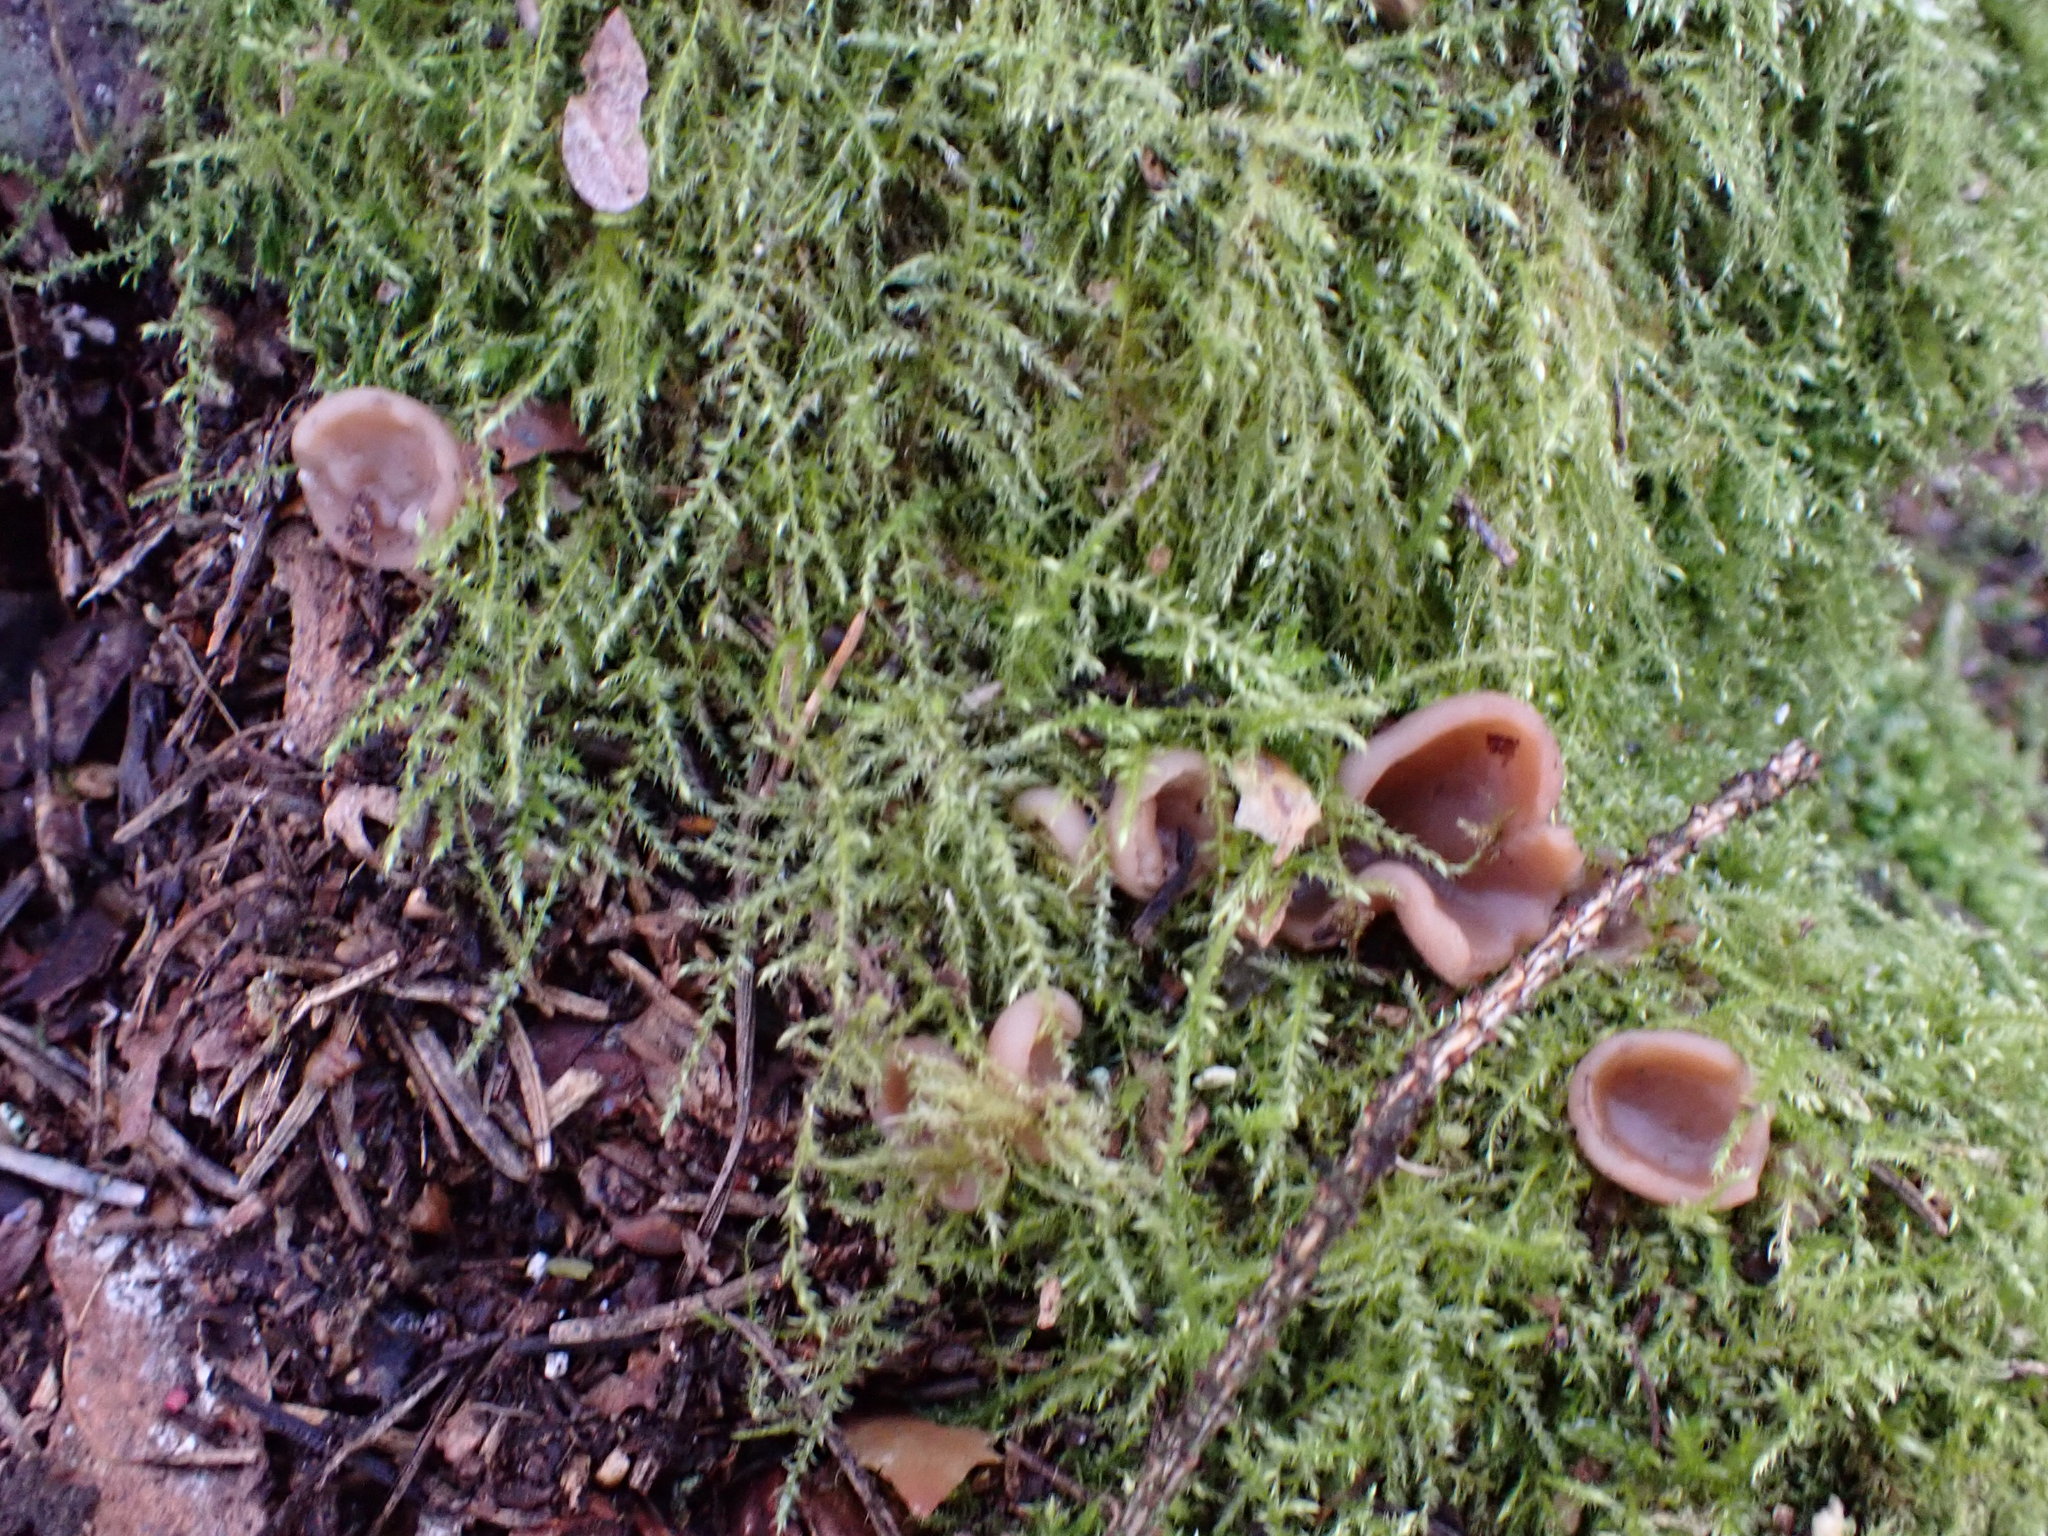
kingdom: Fungi
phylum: Ascomycota
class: Pezizomycetes
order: Pezizales
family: Discinaceae
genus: Discina
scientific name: Discina
